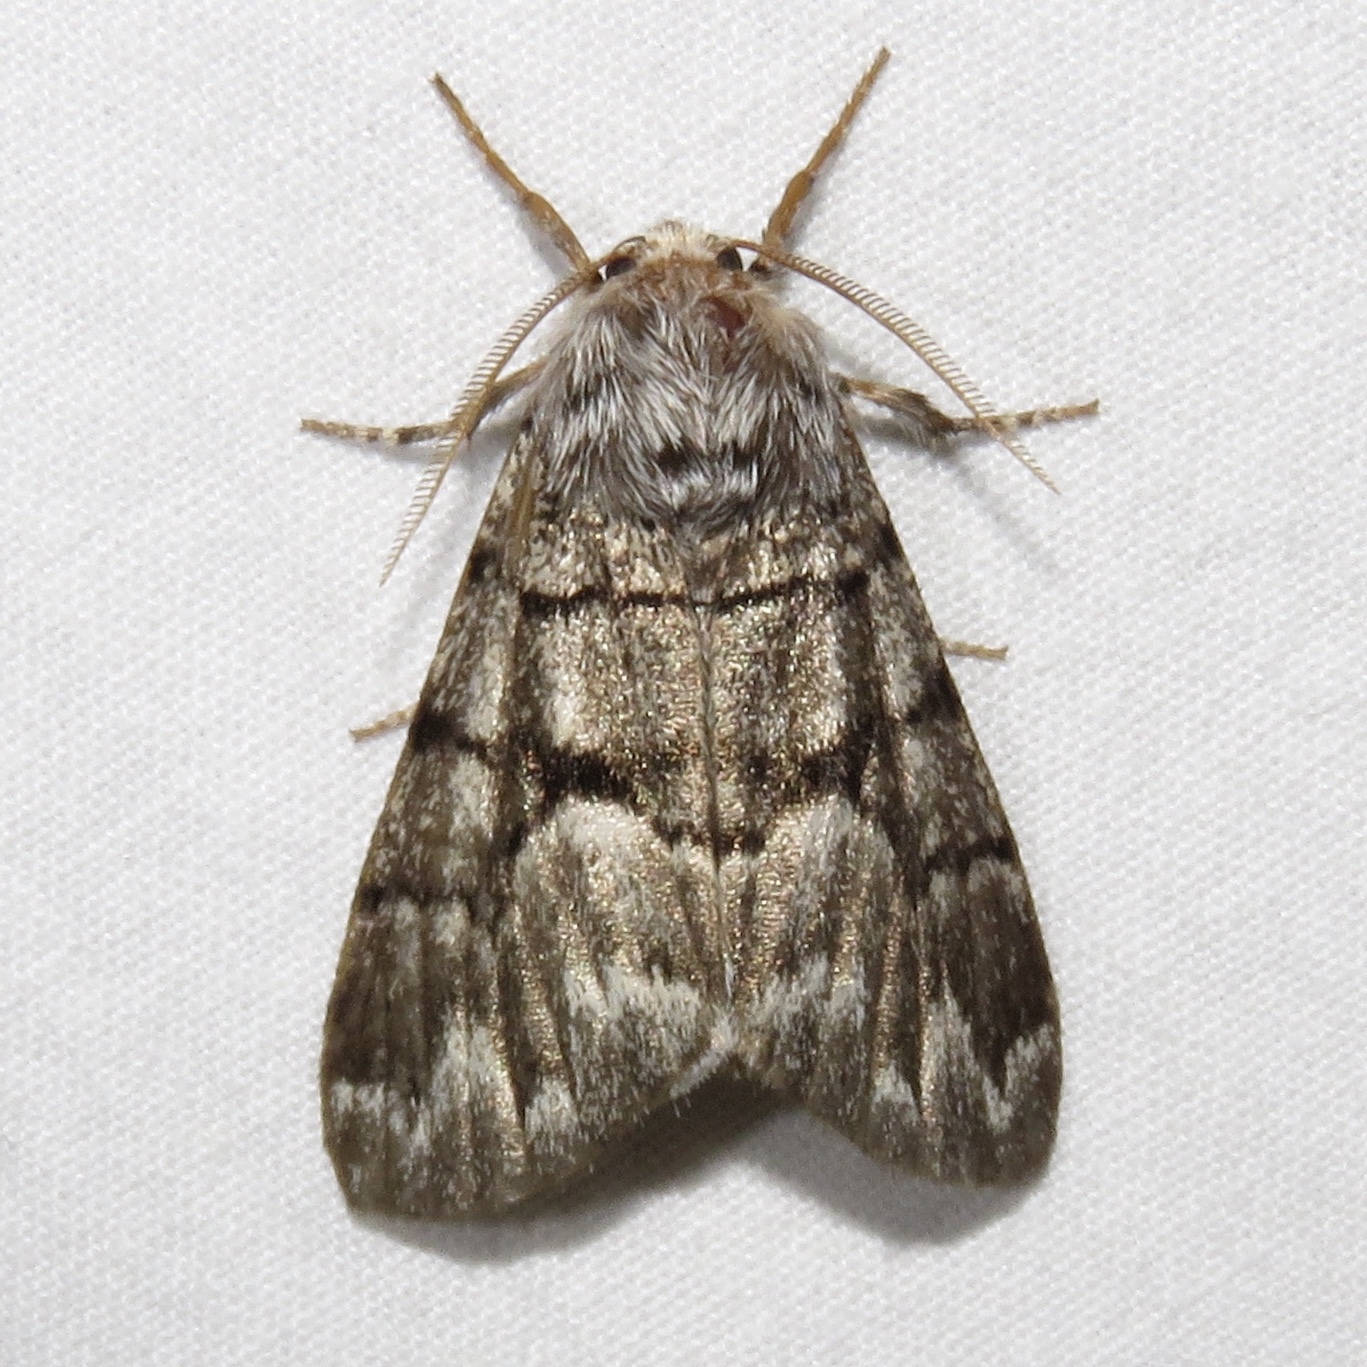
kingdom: Animalia
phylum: Arthropoda
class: Insecta
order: Lepidoptera
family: Noctuidae
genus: Panthea
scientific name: Panthea furcilla
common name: Eastern panthea moth
